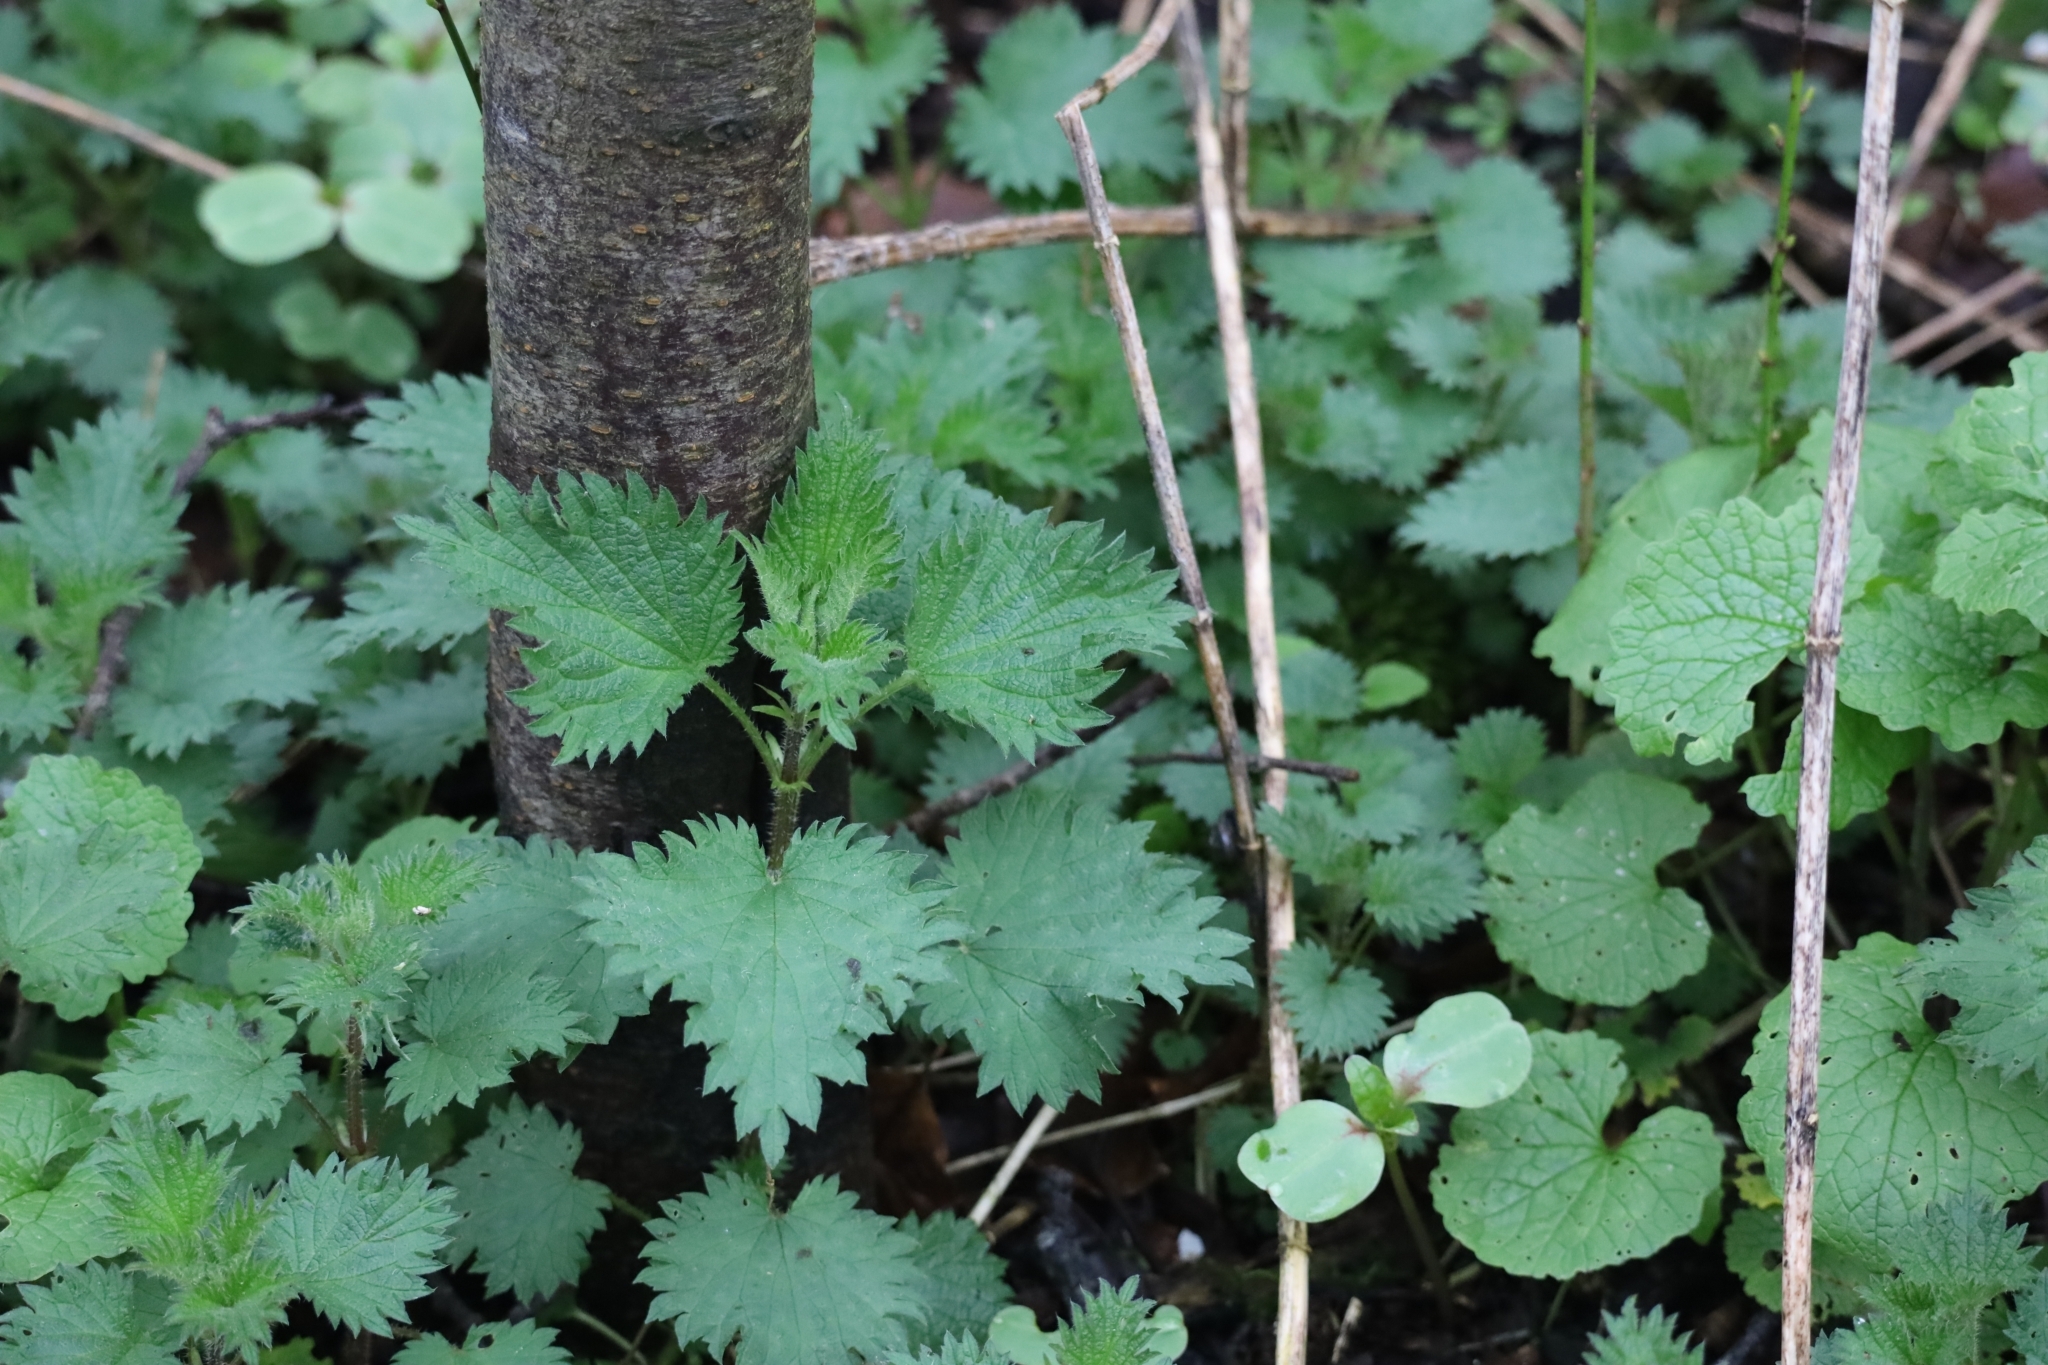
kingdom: Plantae
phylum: Tracheophyta
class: Magnoliopsida
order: Rosales
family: Urticaceae
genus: Urtica
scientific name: Urtica dioica
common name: Common nettle
